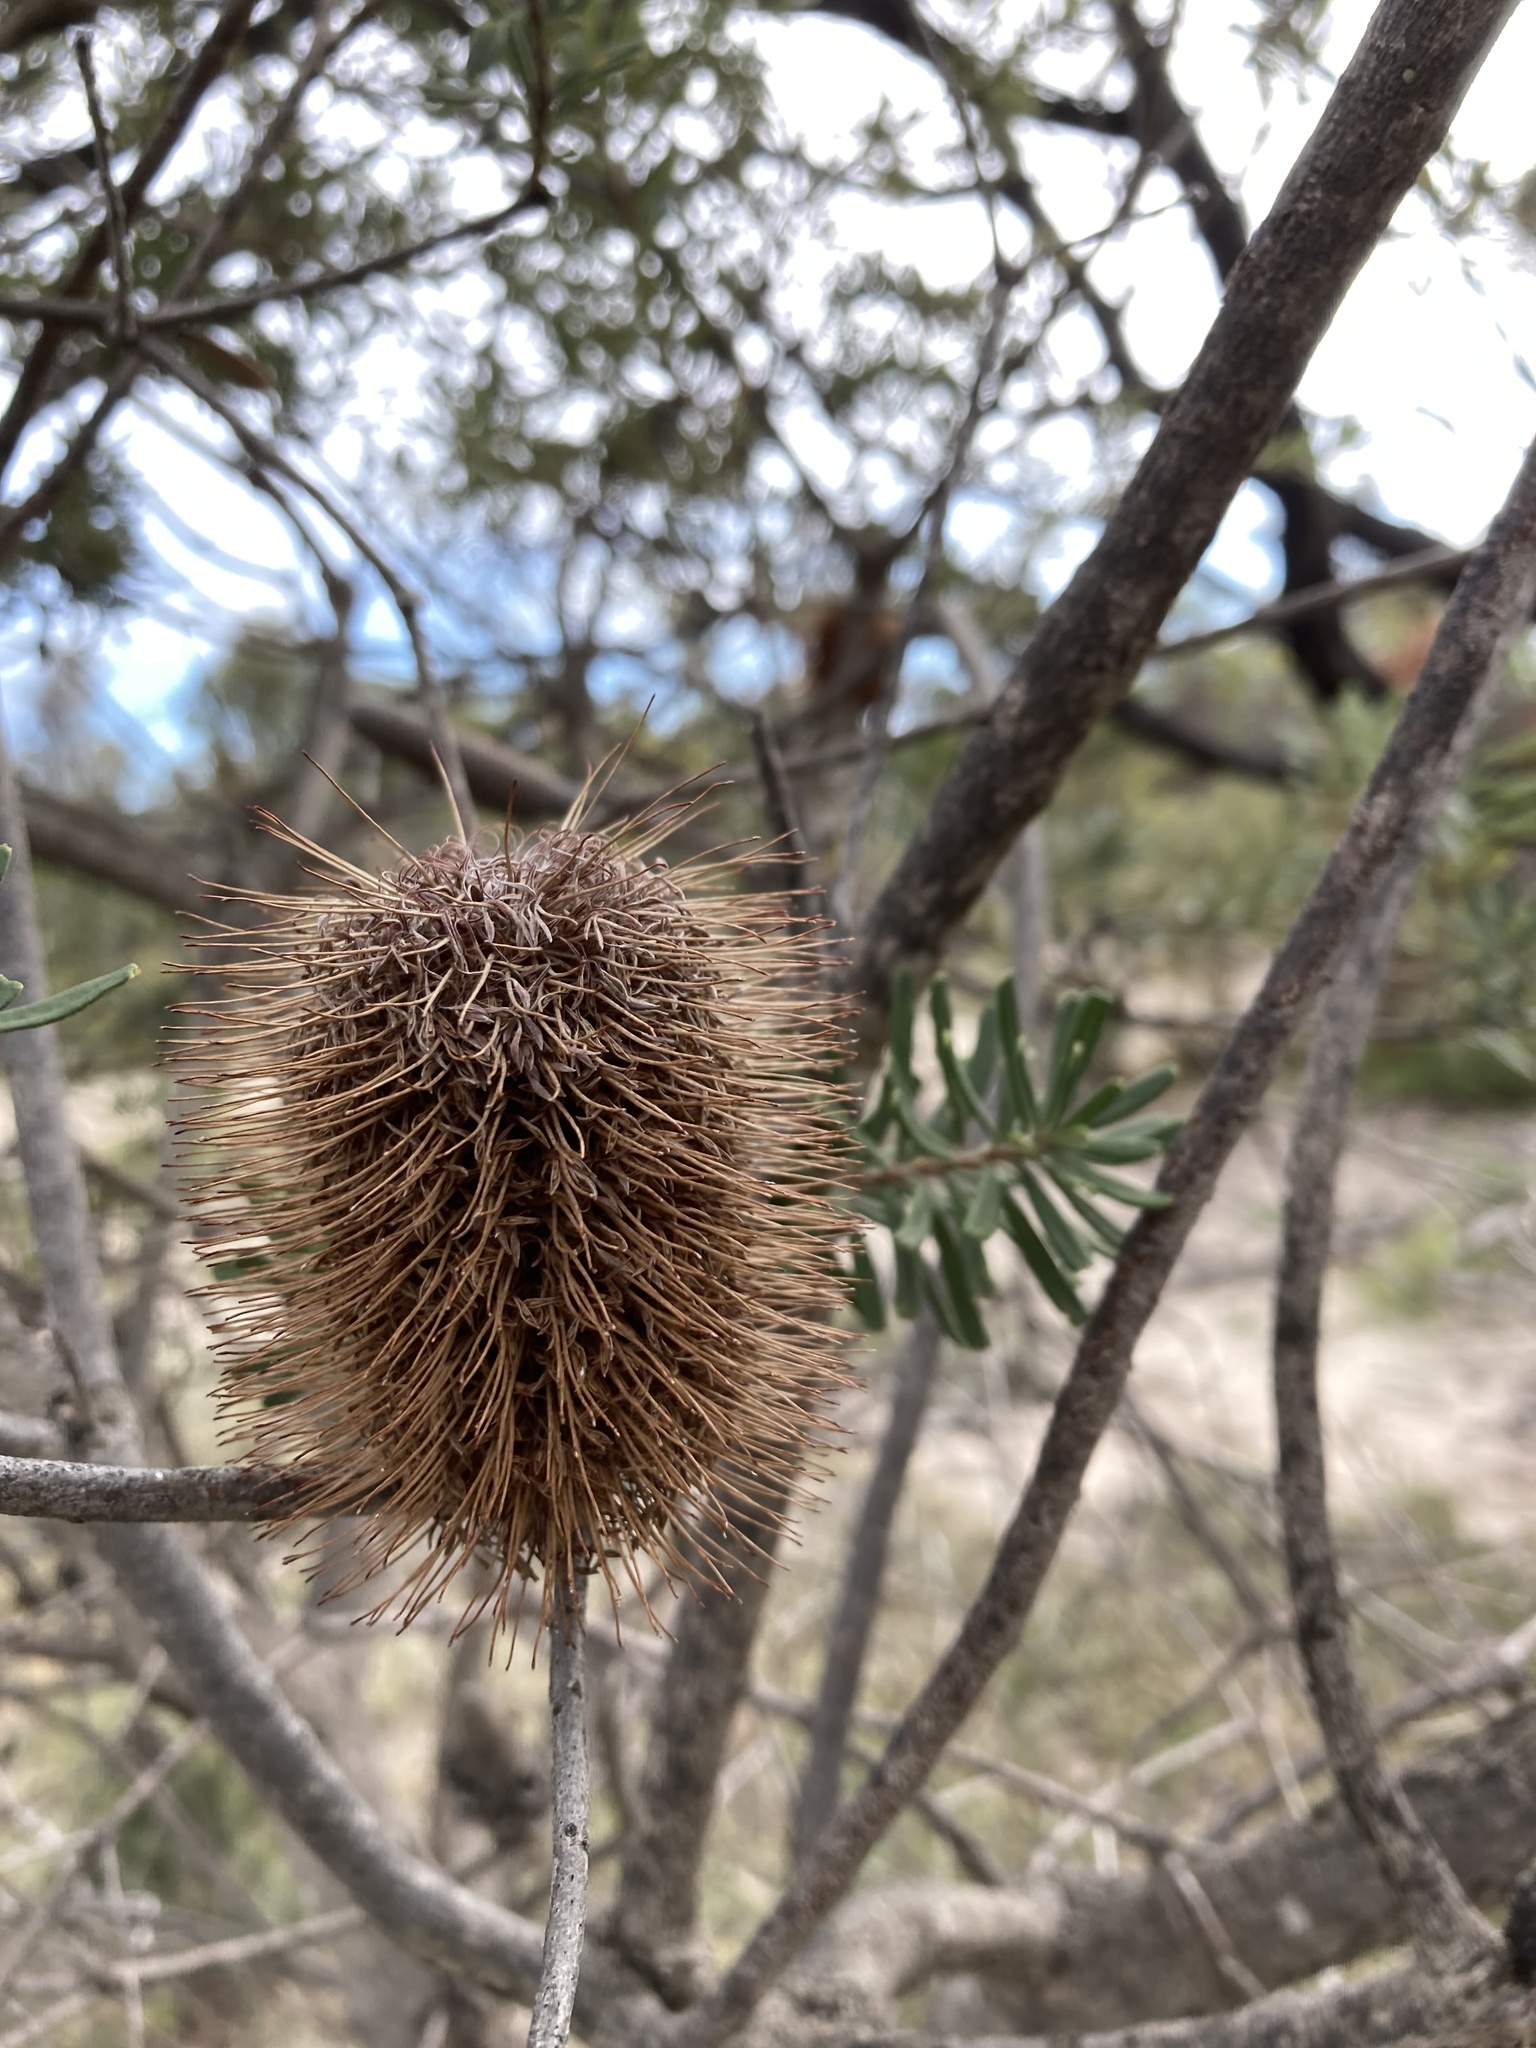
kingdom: Plantae
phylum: Tracheophyta
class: Magnoliopsida
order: Proteales
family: Proteaceae
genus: Banksia
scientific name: Banksia marginata
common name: Silver banksia
